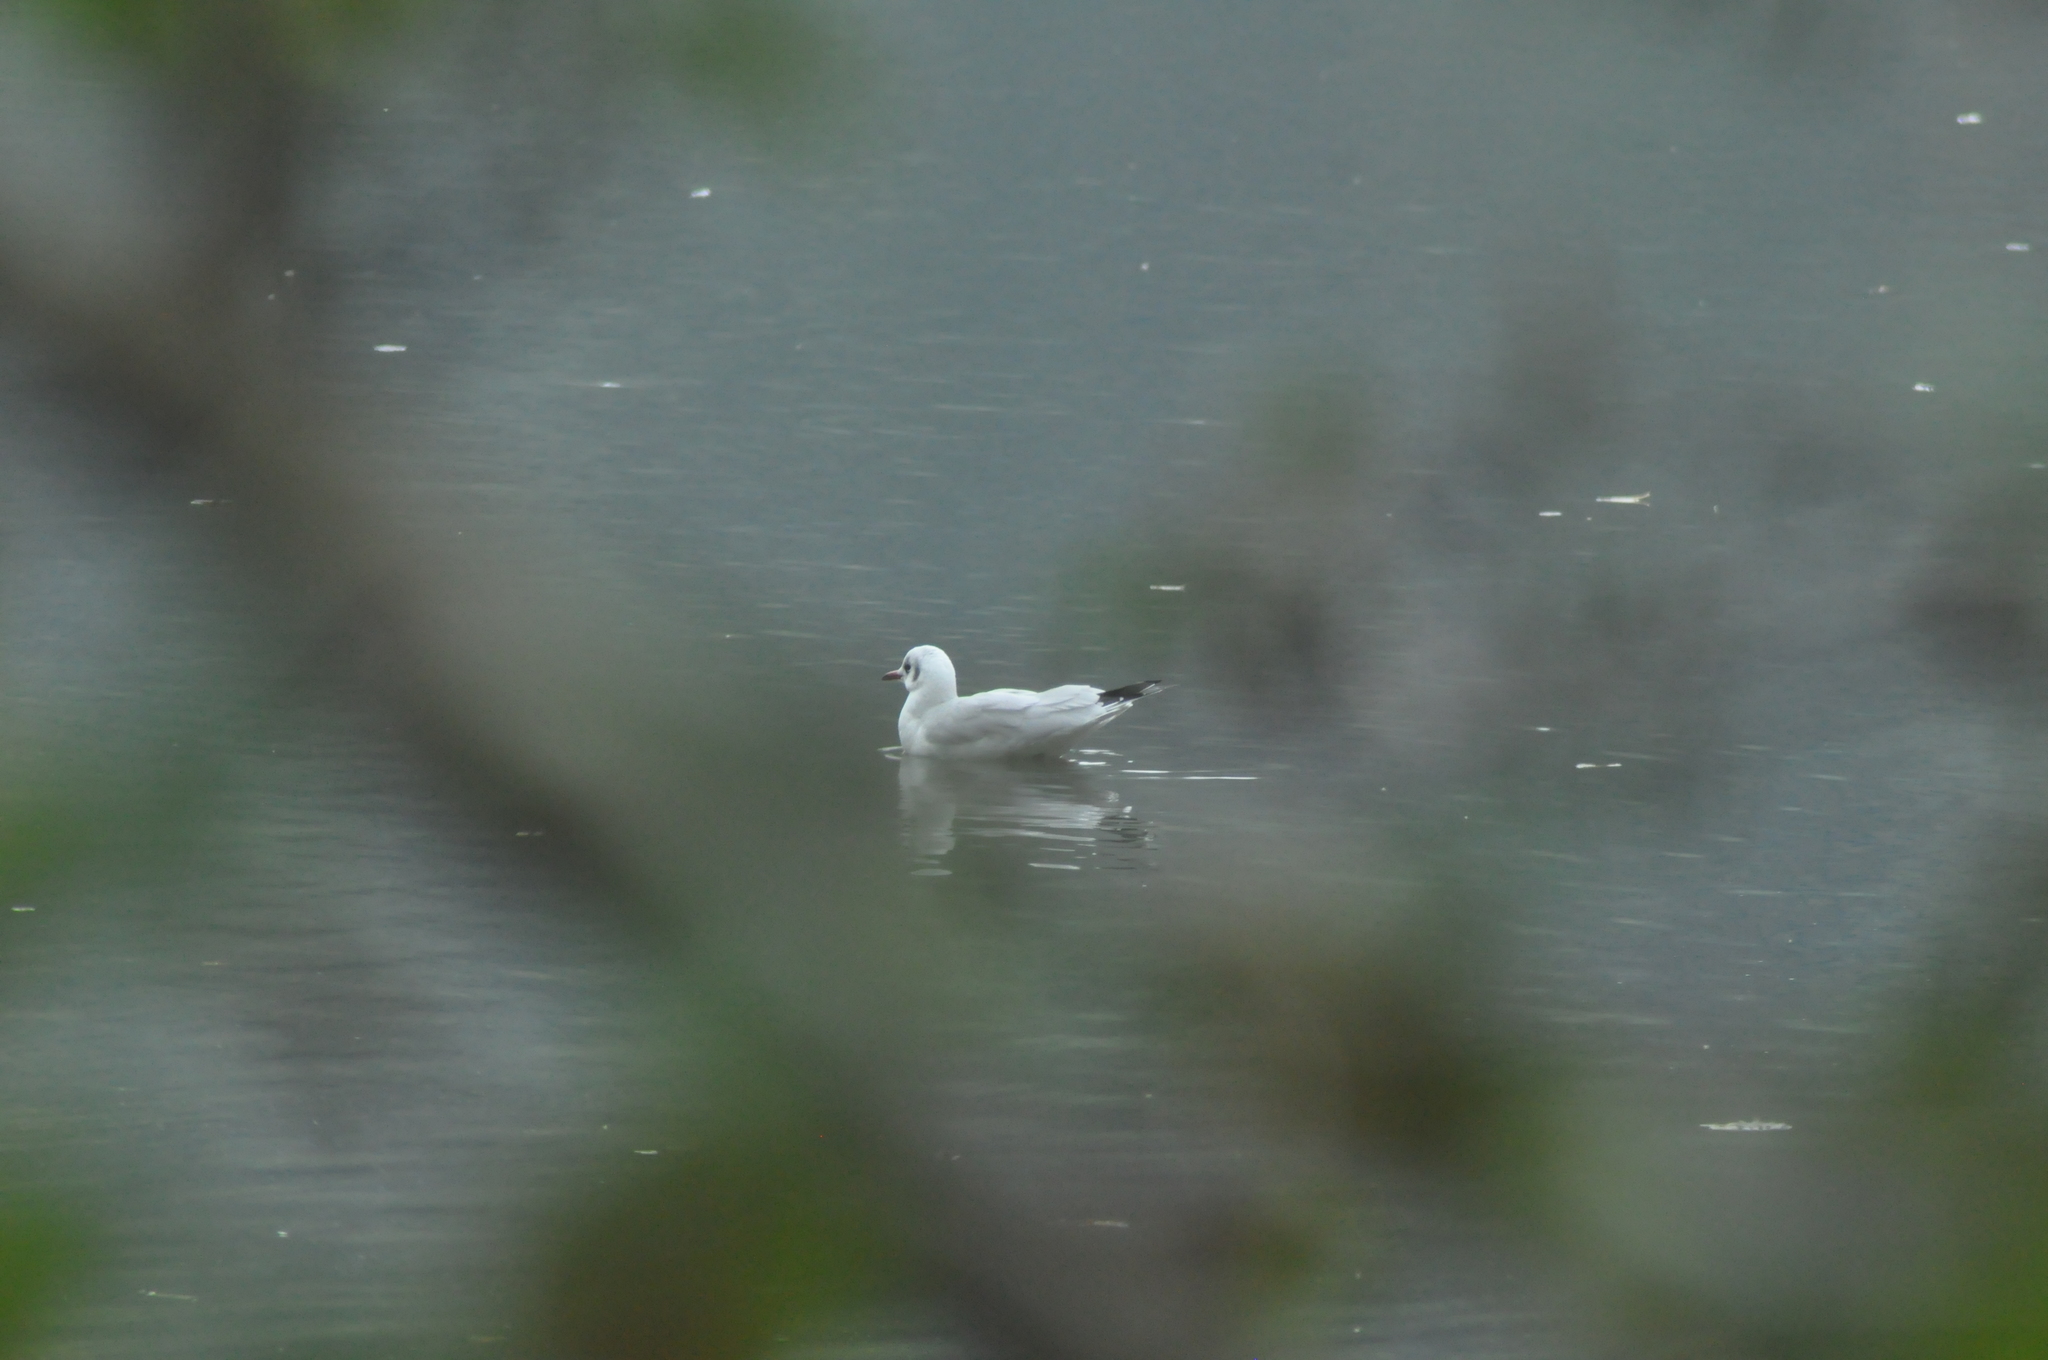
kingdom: Animalia
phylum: Chordata
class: Aves
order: Charadriiformes
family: Laridae
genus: Chroicocephalus
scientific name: Chroicocephalus ridibundus
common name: Black-headed gull
